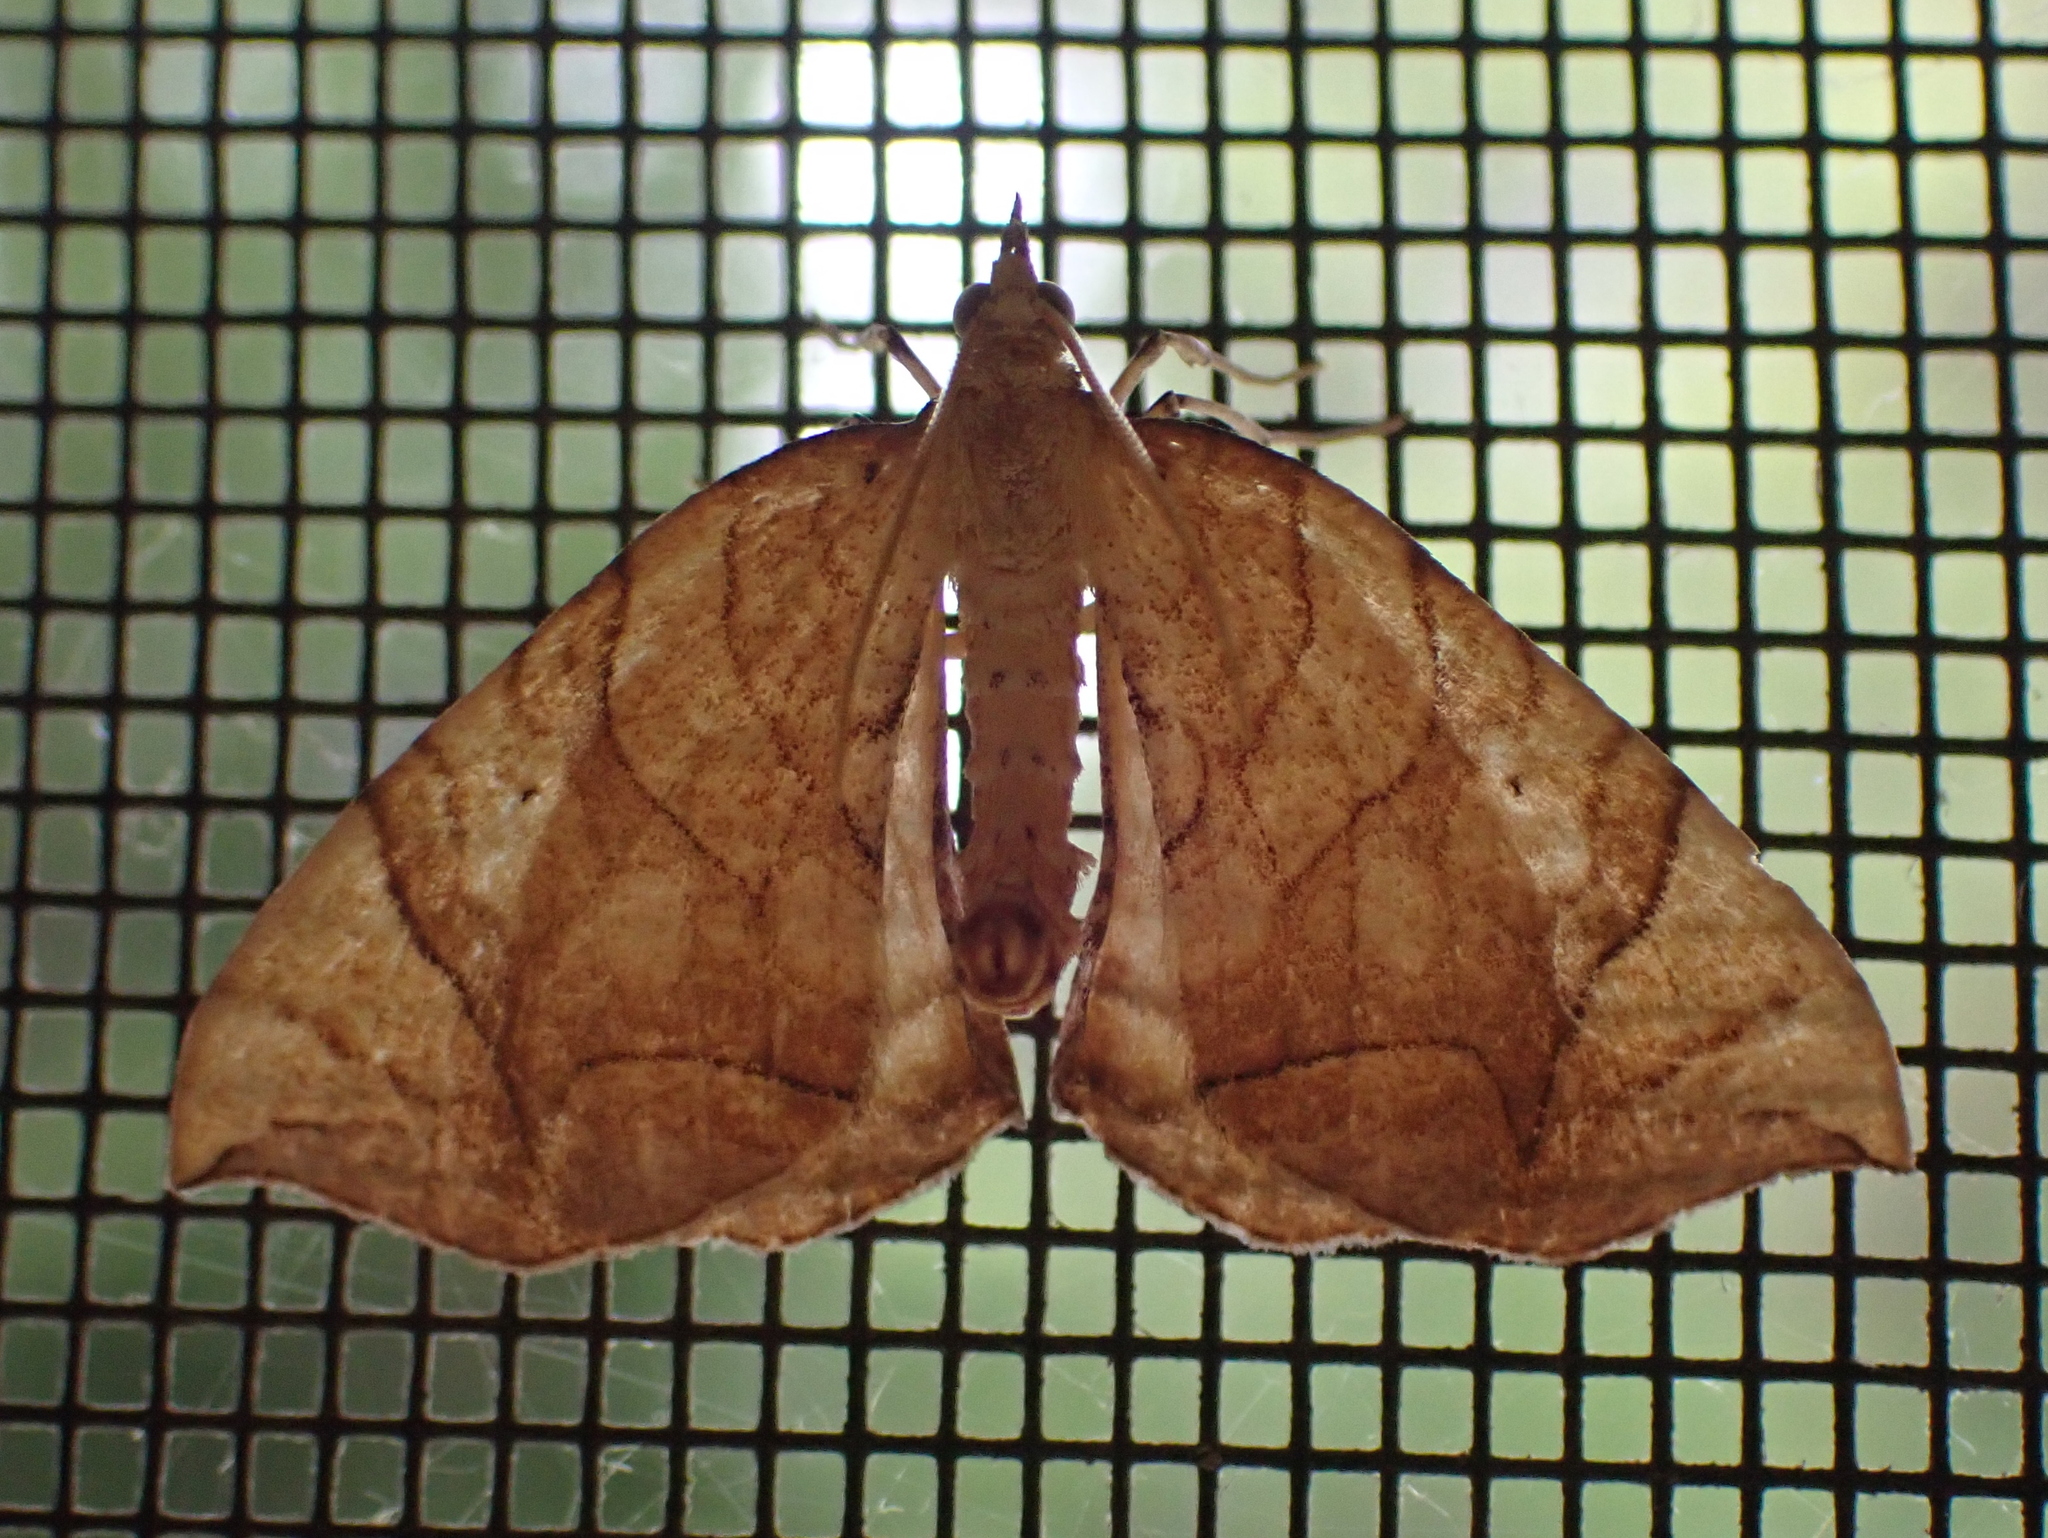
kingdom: Animalia
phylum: Arthropoda
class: Insecta
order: Lepidoptera
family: Geometridae
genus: Eulithis
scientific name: Eulithis
